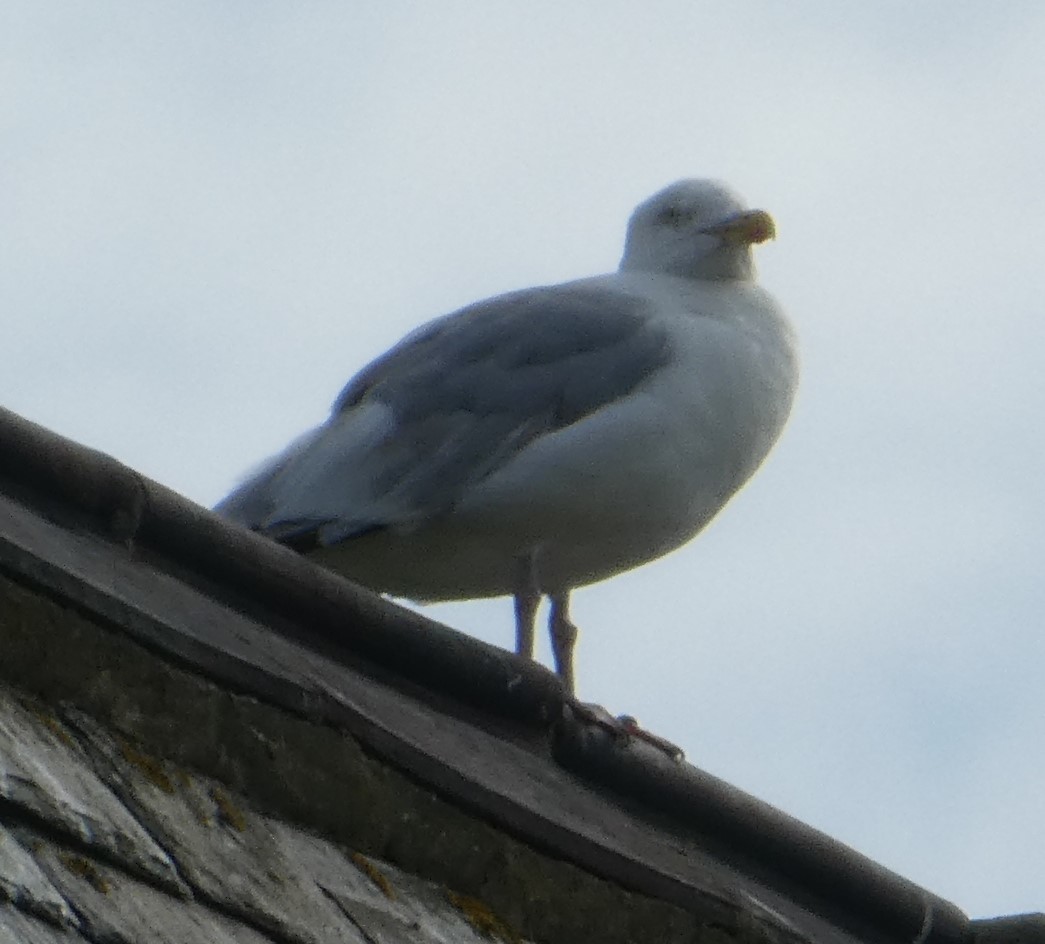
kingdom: Animalia
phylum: Chordata
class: Aves
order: Charadriiformes
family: Laridae
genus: Larus
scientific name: Larus argentatus
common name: Herring gull
